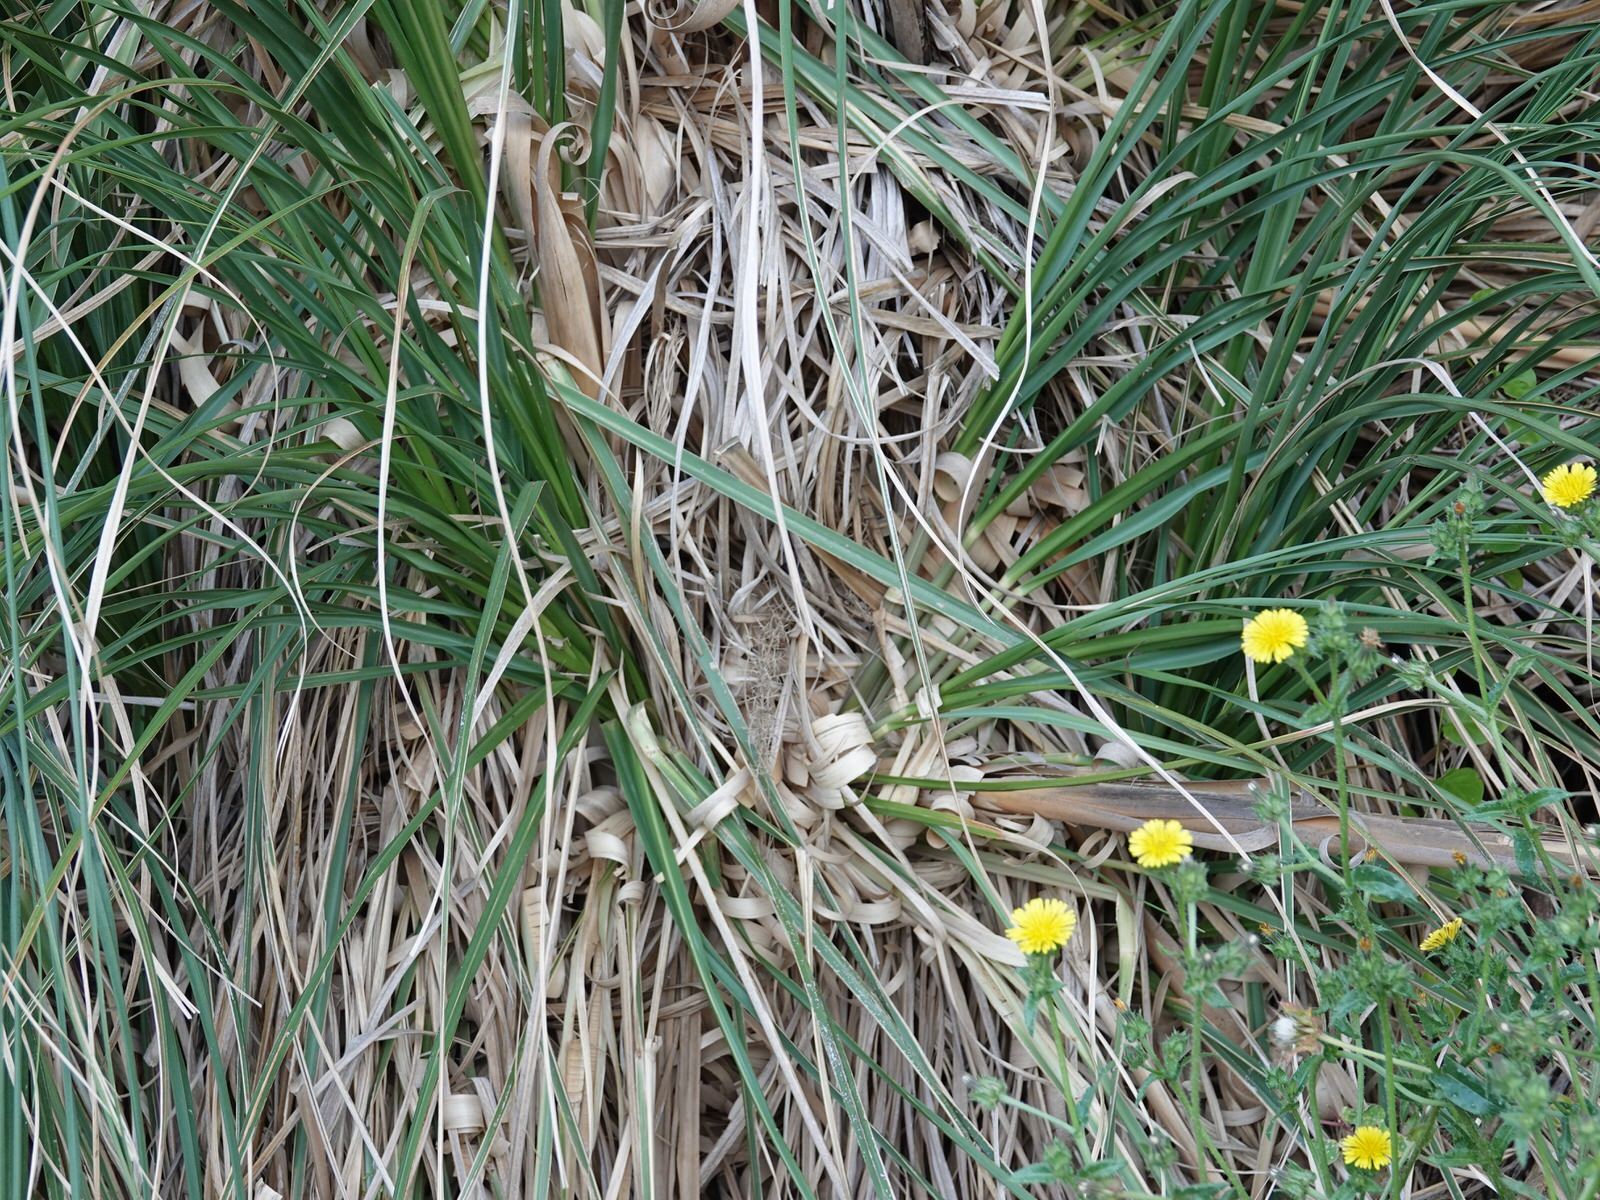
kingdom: Plantae
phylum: Tracheophyta
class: Liliopsida
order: Poales
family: Poaceae
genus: Cortaderia
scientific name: Cortaderia selloana
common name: Uruguayan pampas grass
